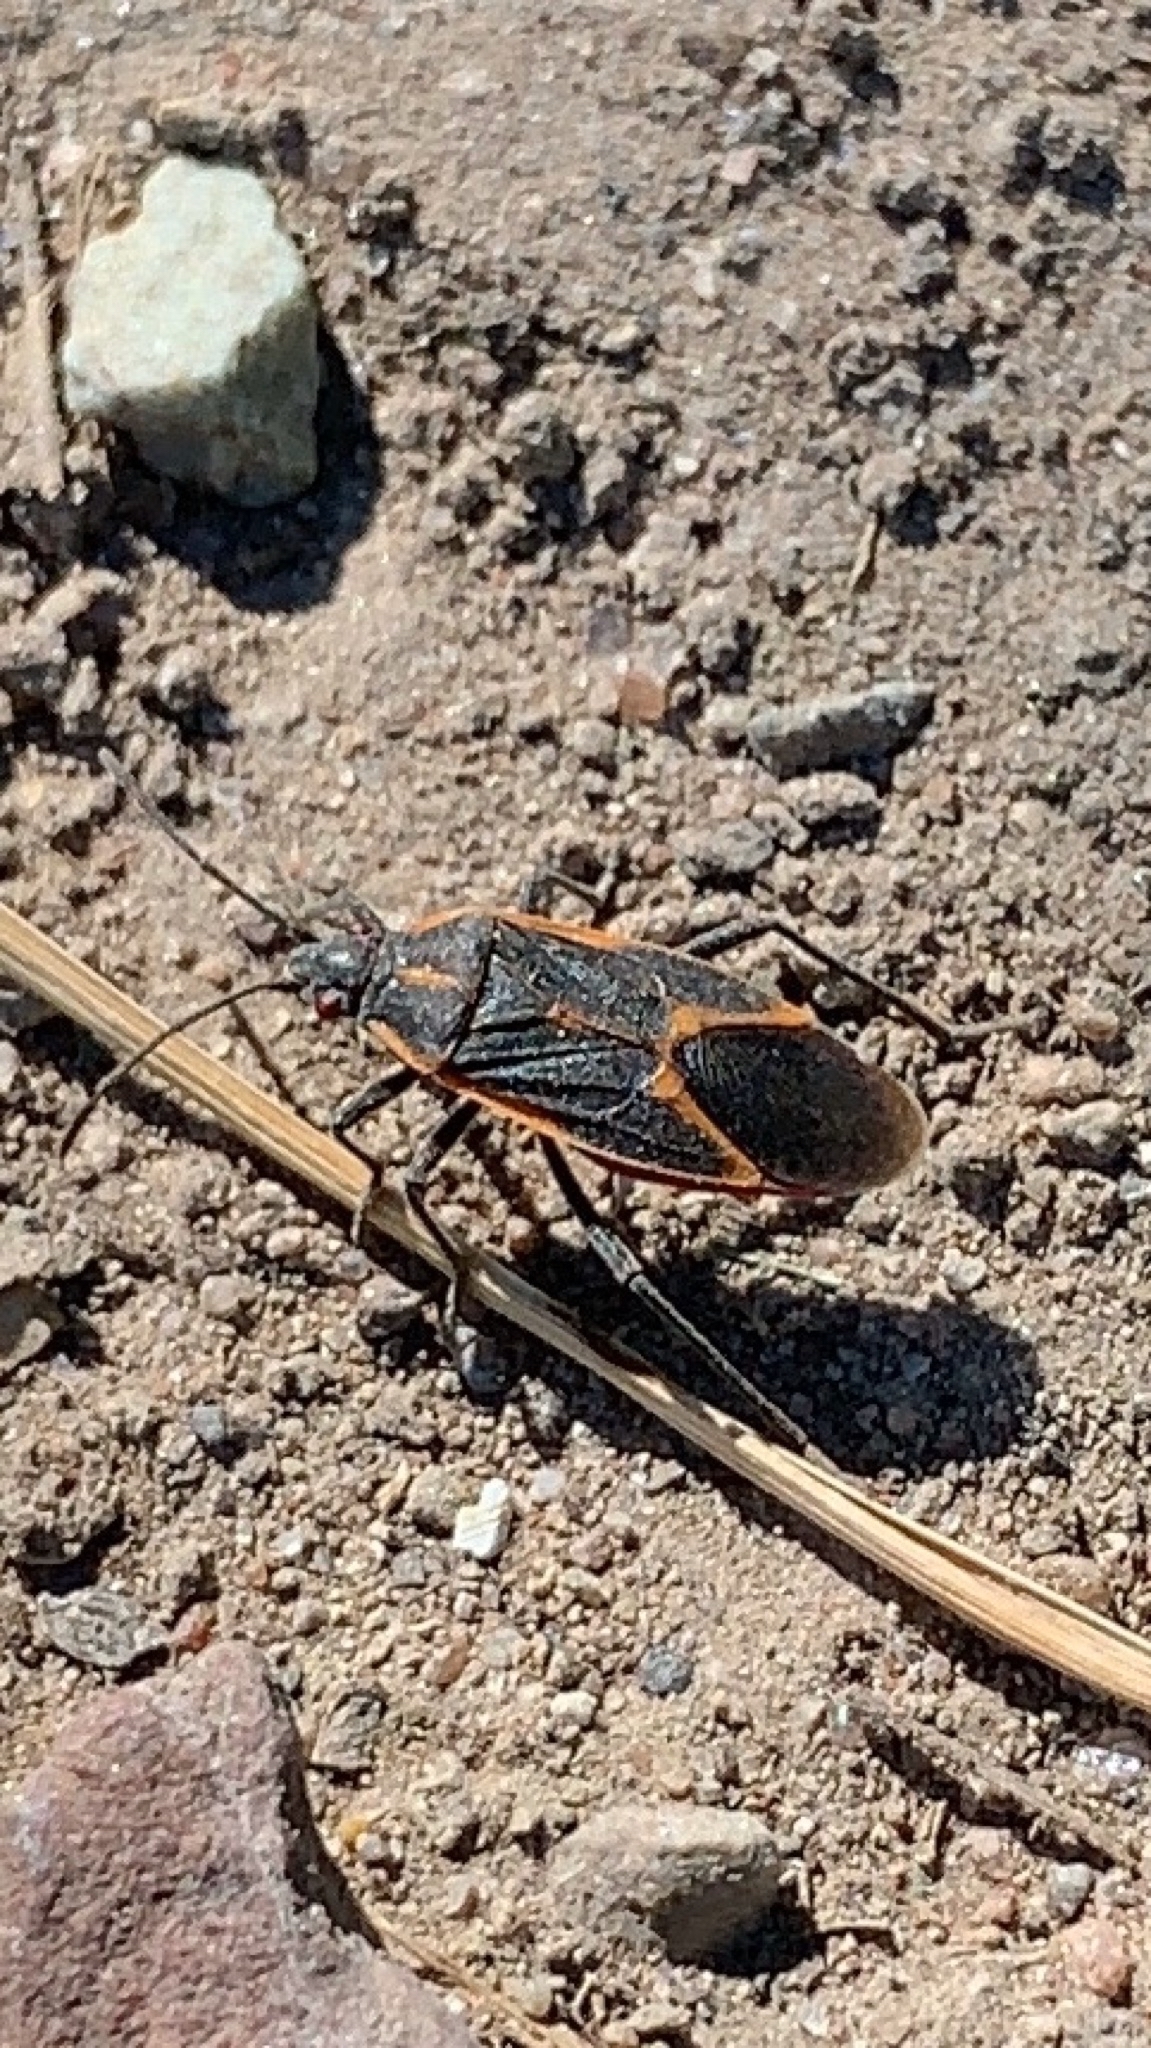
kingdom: Animalia
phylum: Arthropoda
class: Insecta
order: Hemiptera
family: Rhopalidae
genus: Boisea
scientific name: Boisea trivittata
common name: Boxelder bug
